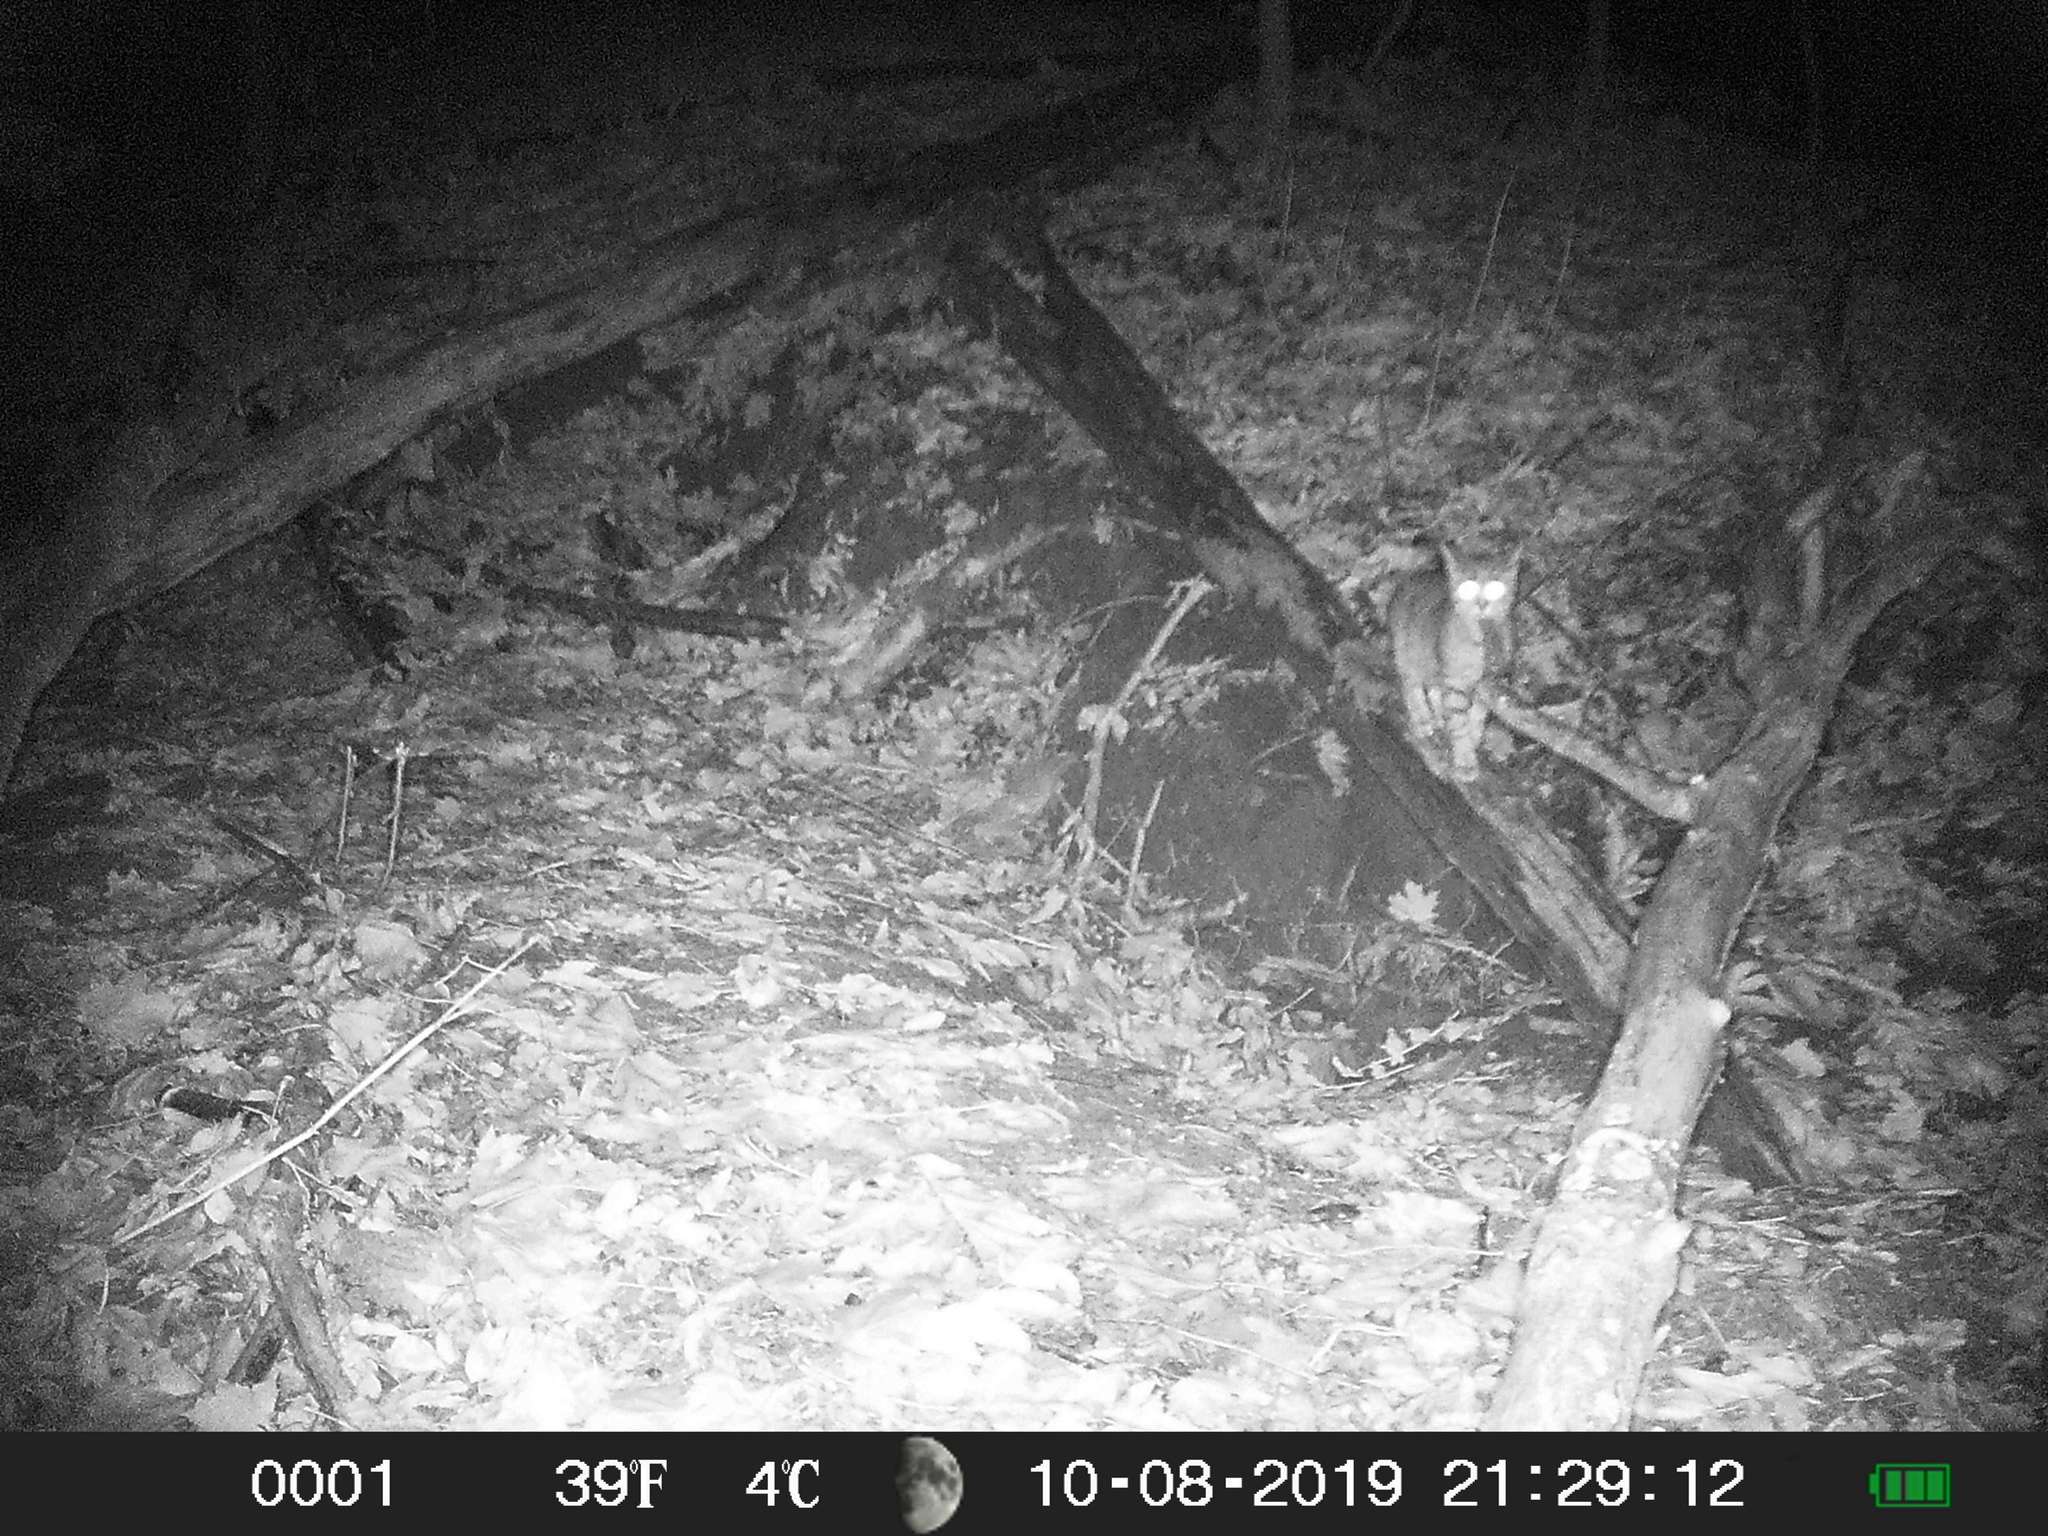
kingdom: Animalia
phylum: Chordata
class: Mammalia
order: Carnivora
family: Felidae
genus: Felis
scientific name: Felis catus
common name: Domestic cat
